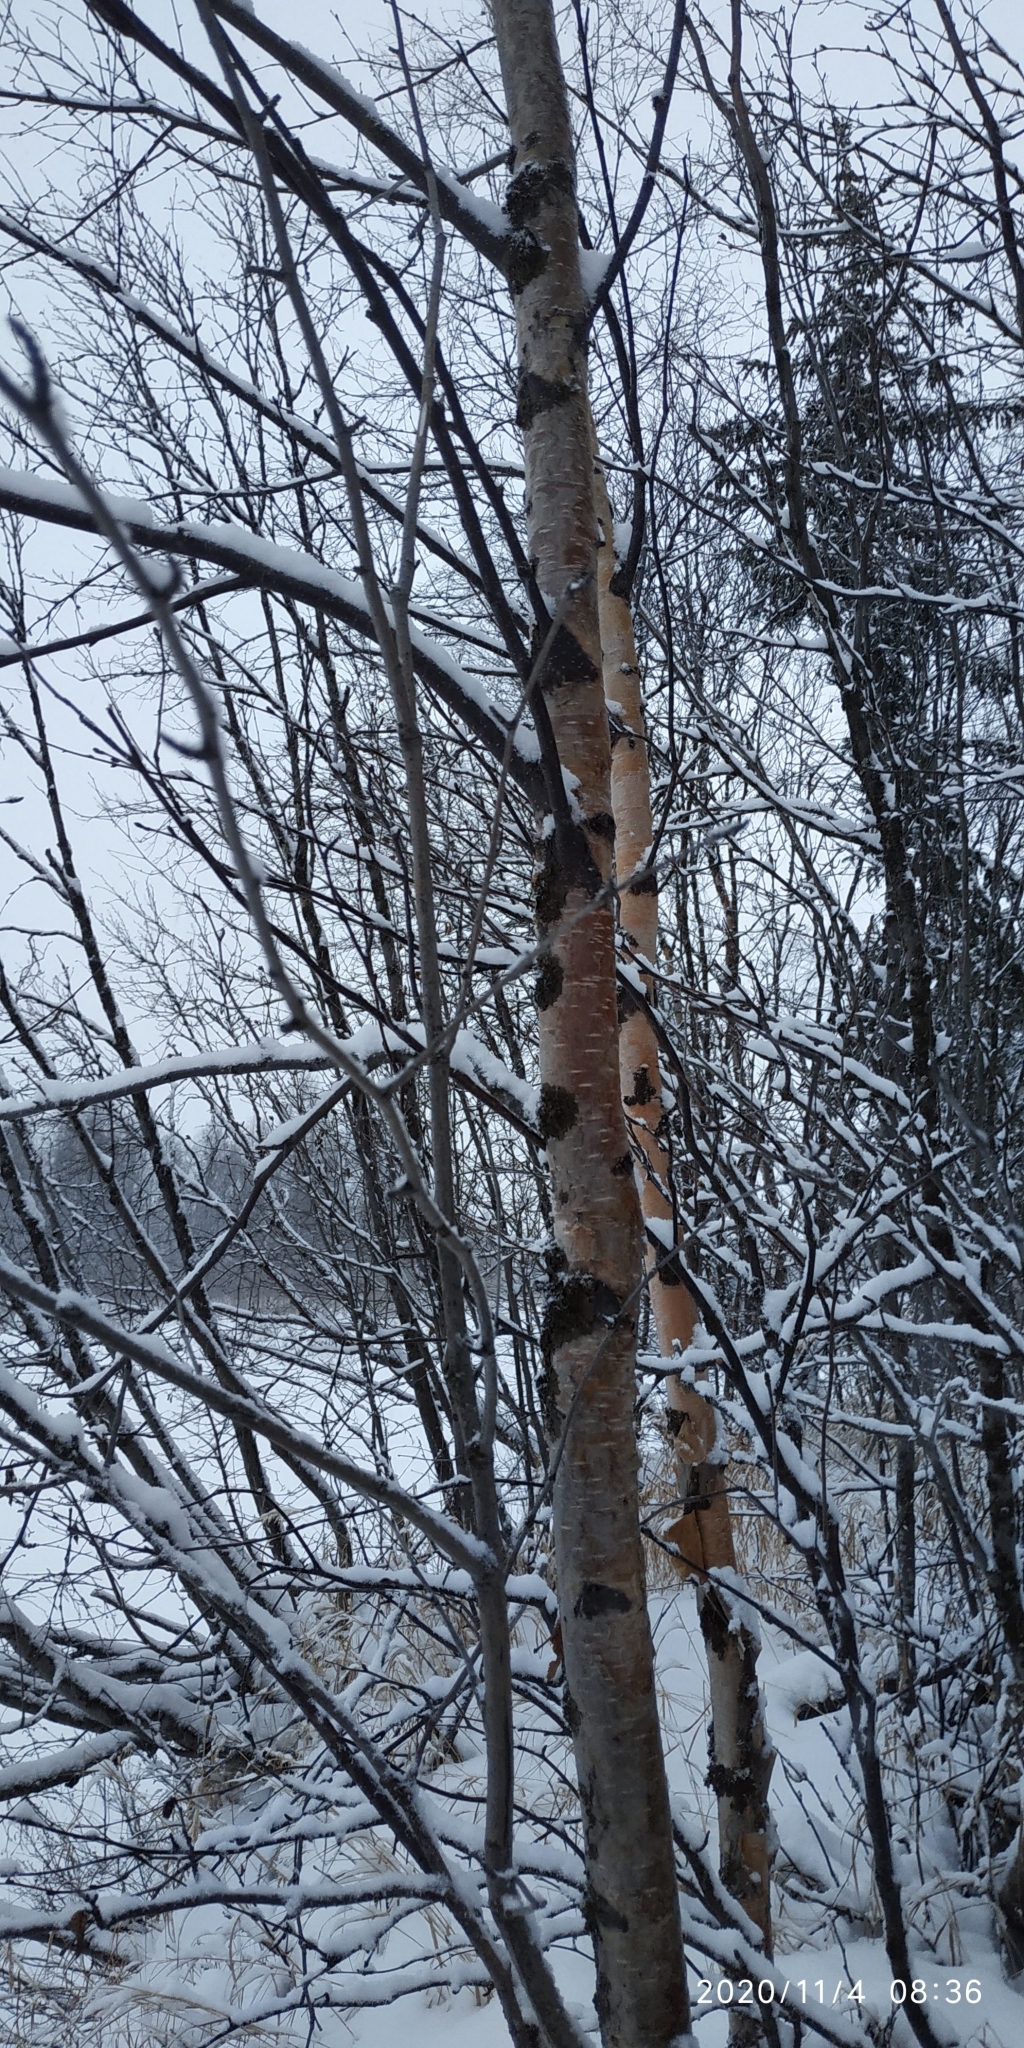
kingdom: Plantae
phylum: Tracheophyta
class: Magnoliopsida
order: Fagales
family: Betulaceae
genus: Betula
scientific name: Betula pubescens
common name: Downy birch
